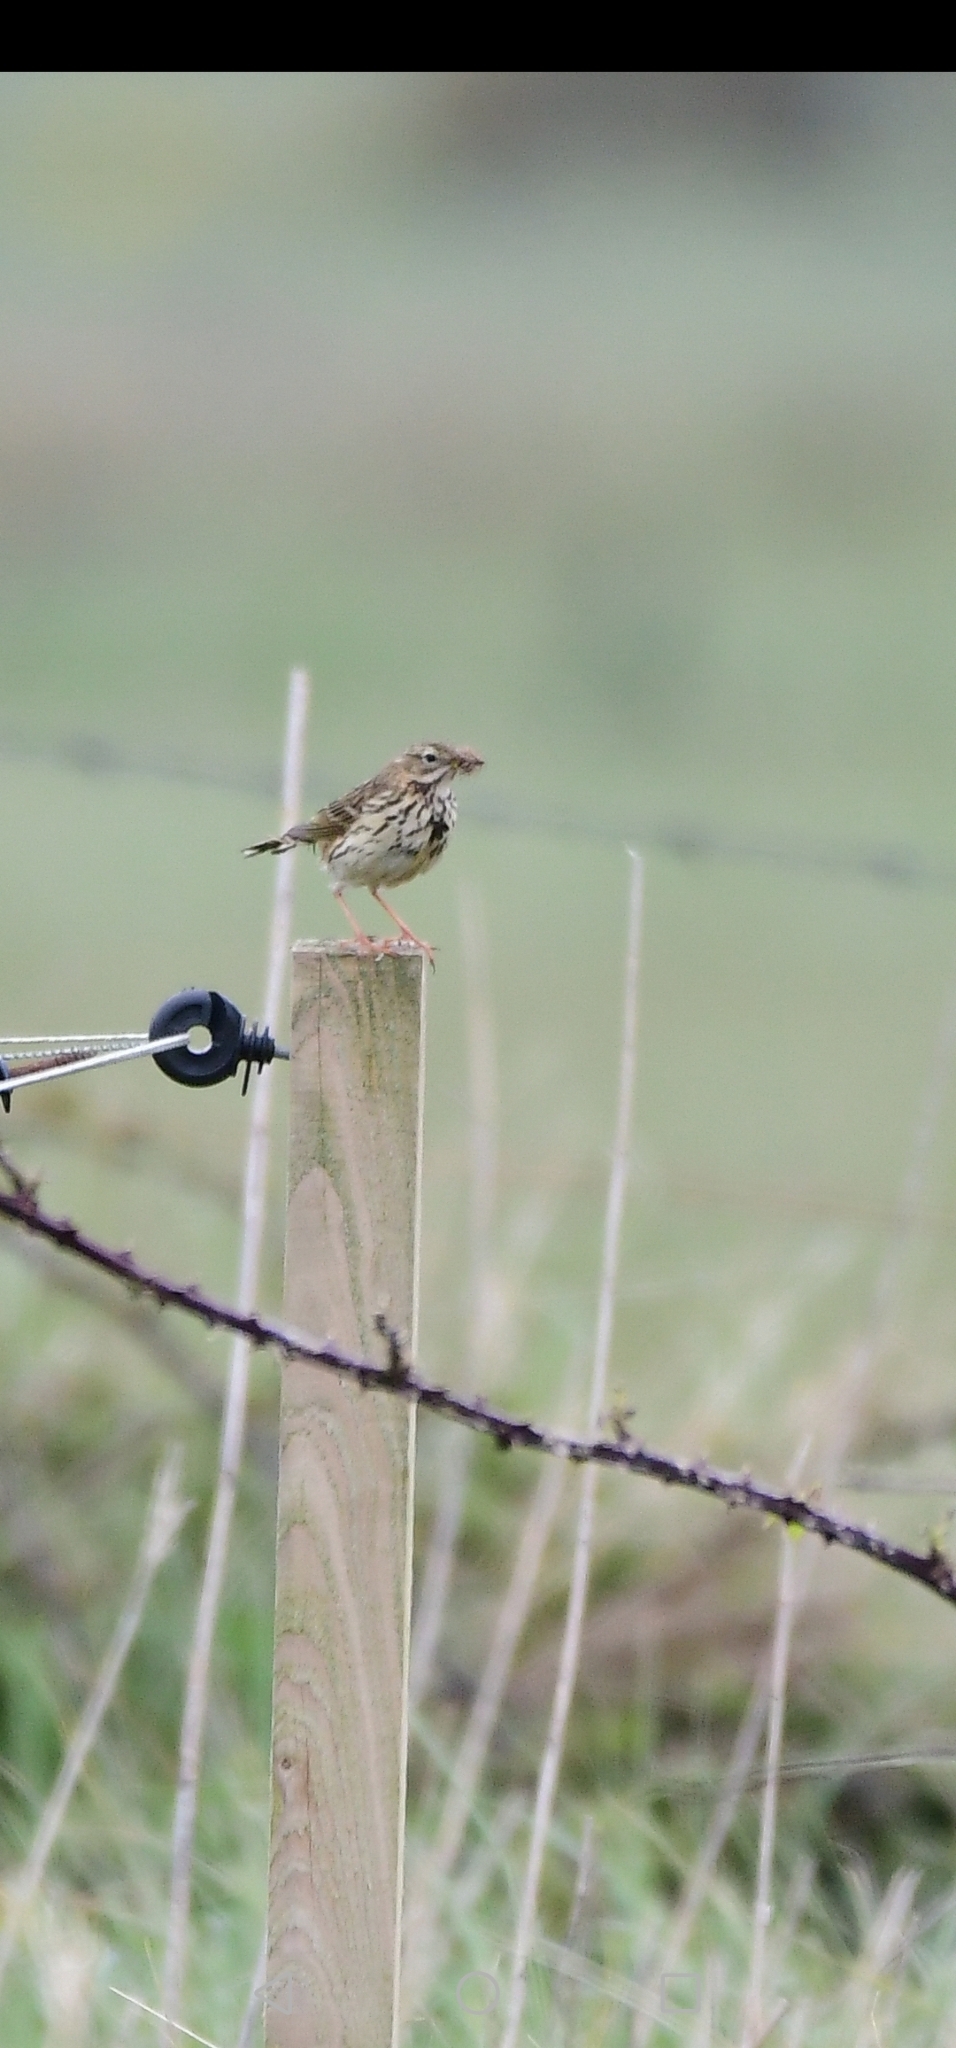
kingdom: Animalia
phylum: Chordata
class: Aves
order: Passeriformes
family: Motacillidae
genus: Anthus
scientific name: Anthus pratensis
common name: Meadow pipit
